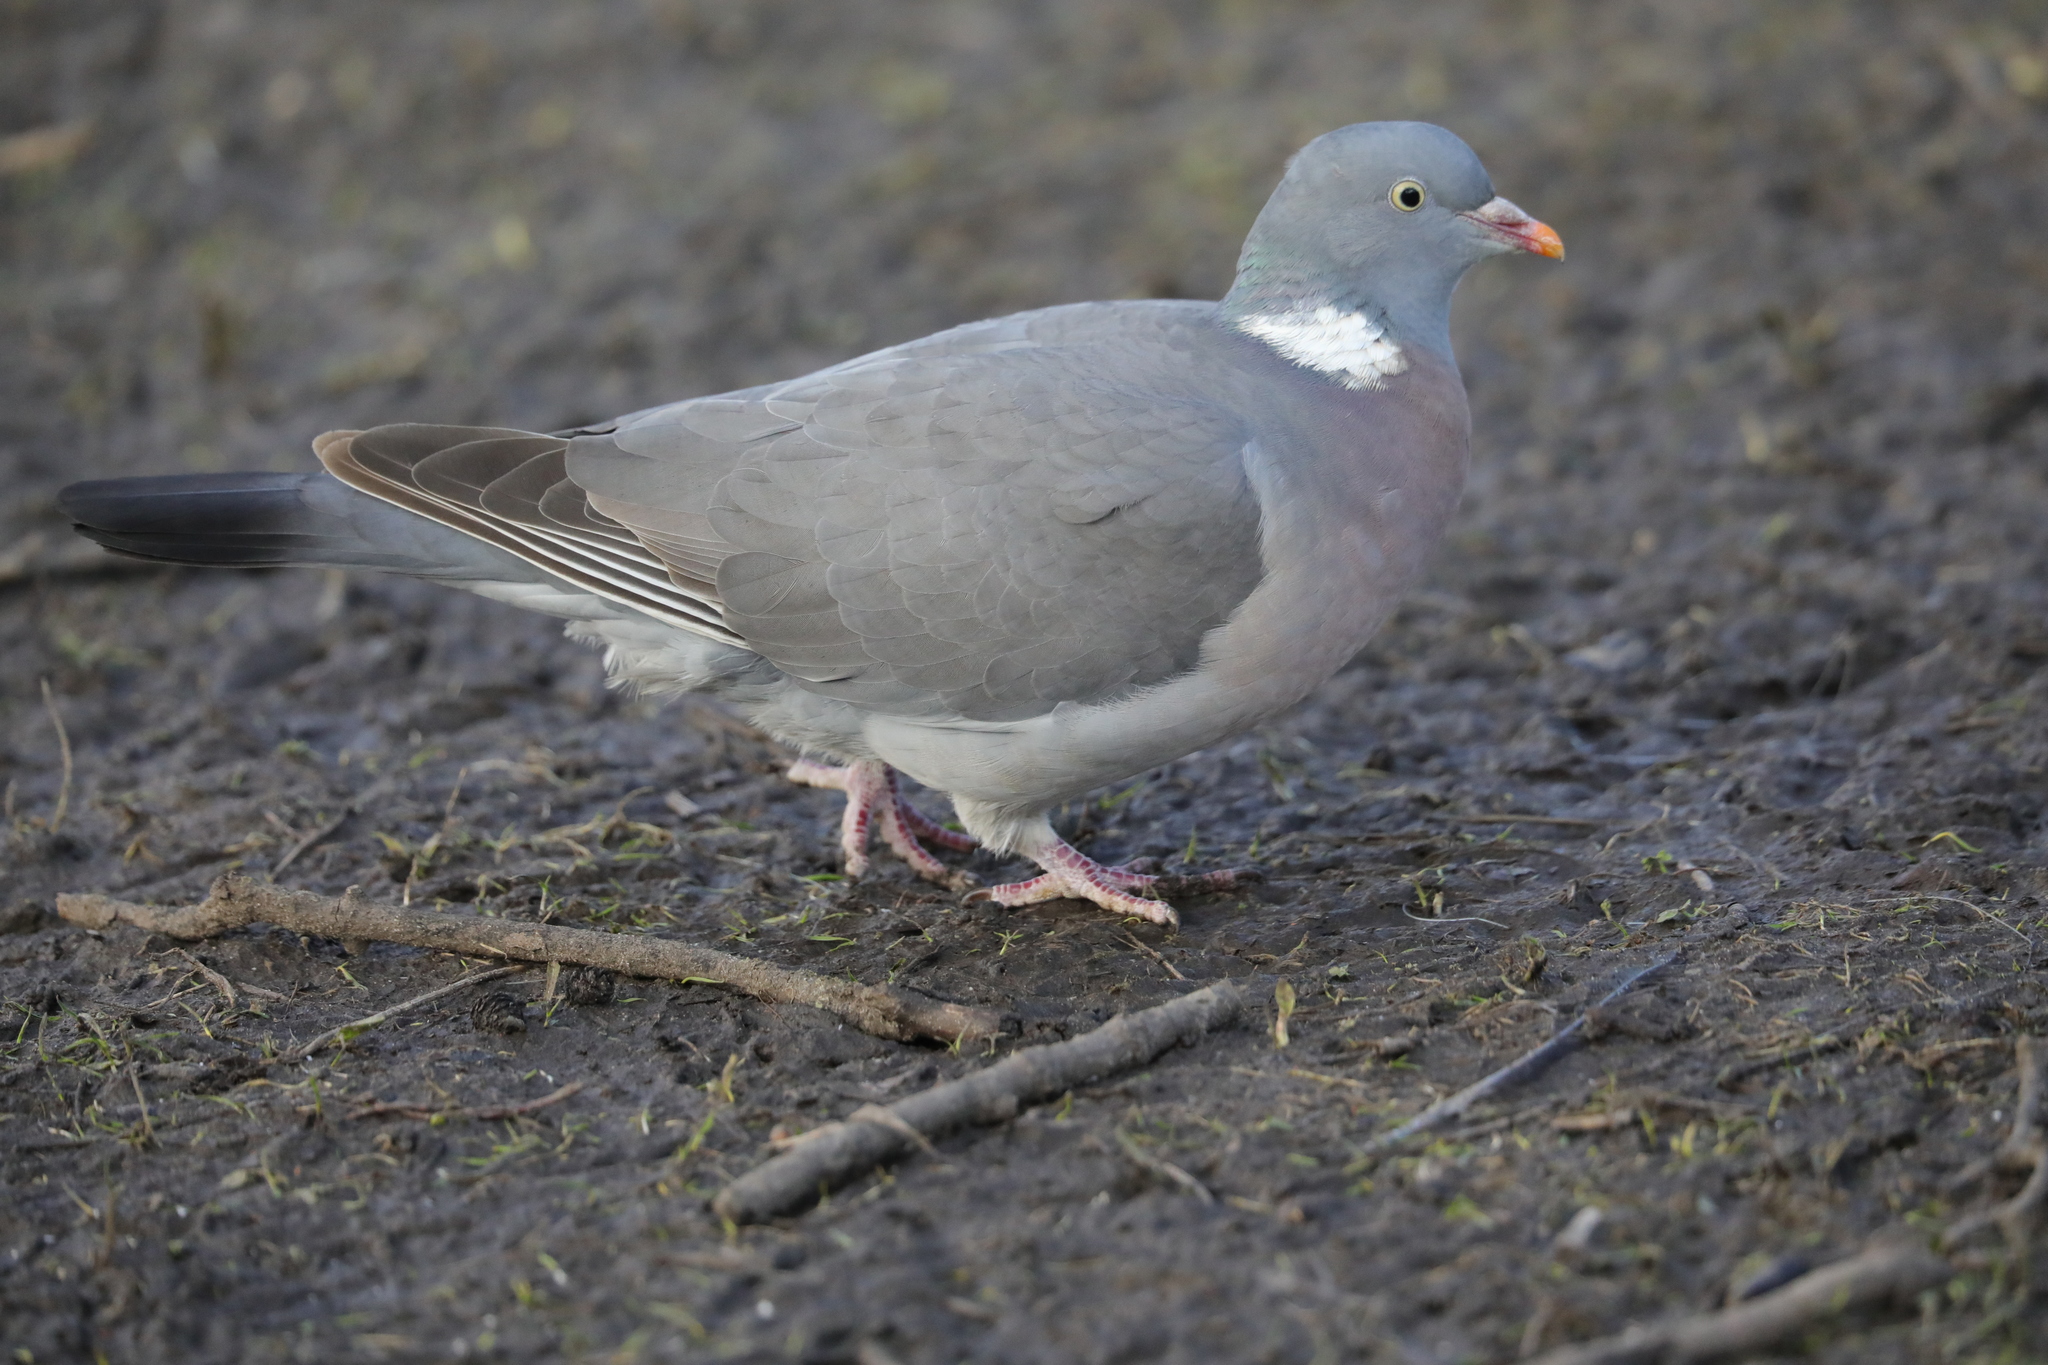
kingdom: Animalia
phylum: Chordata
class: Aves
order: Columbiformes
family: Columbidae
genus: Columba
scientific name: Columba palumbus
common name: Common wood pigeon
